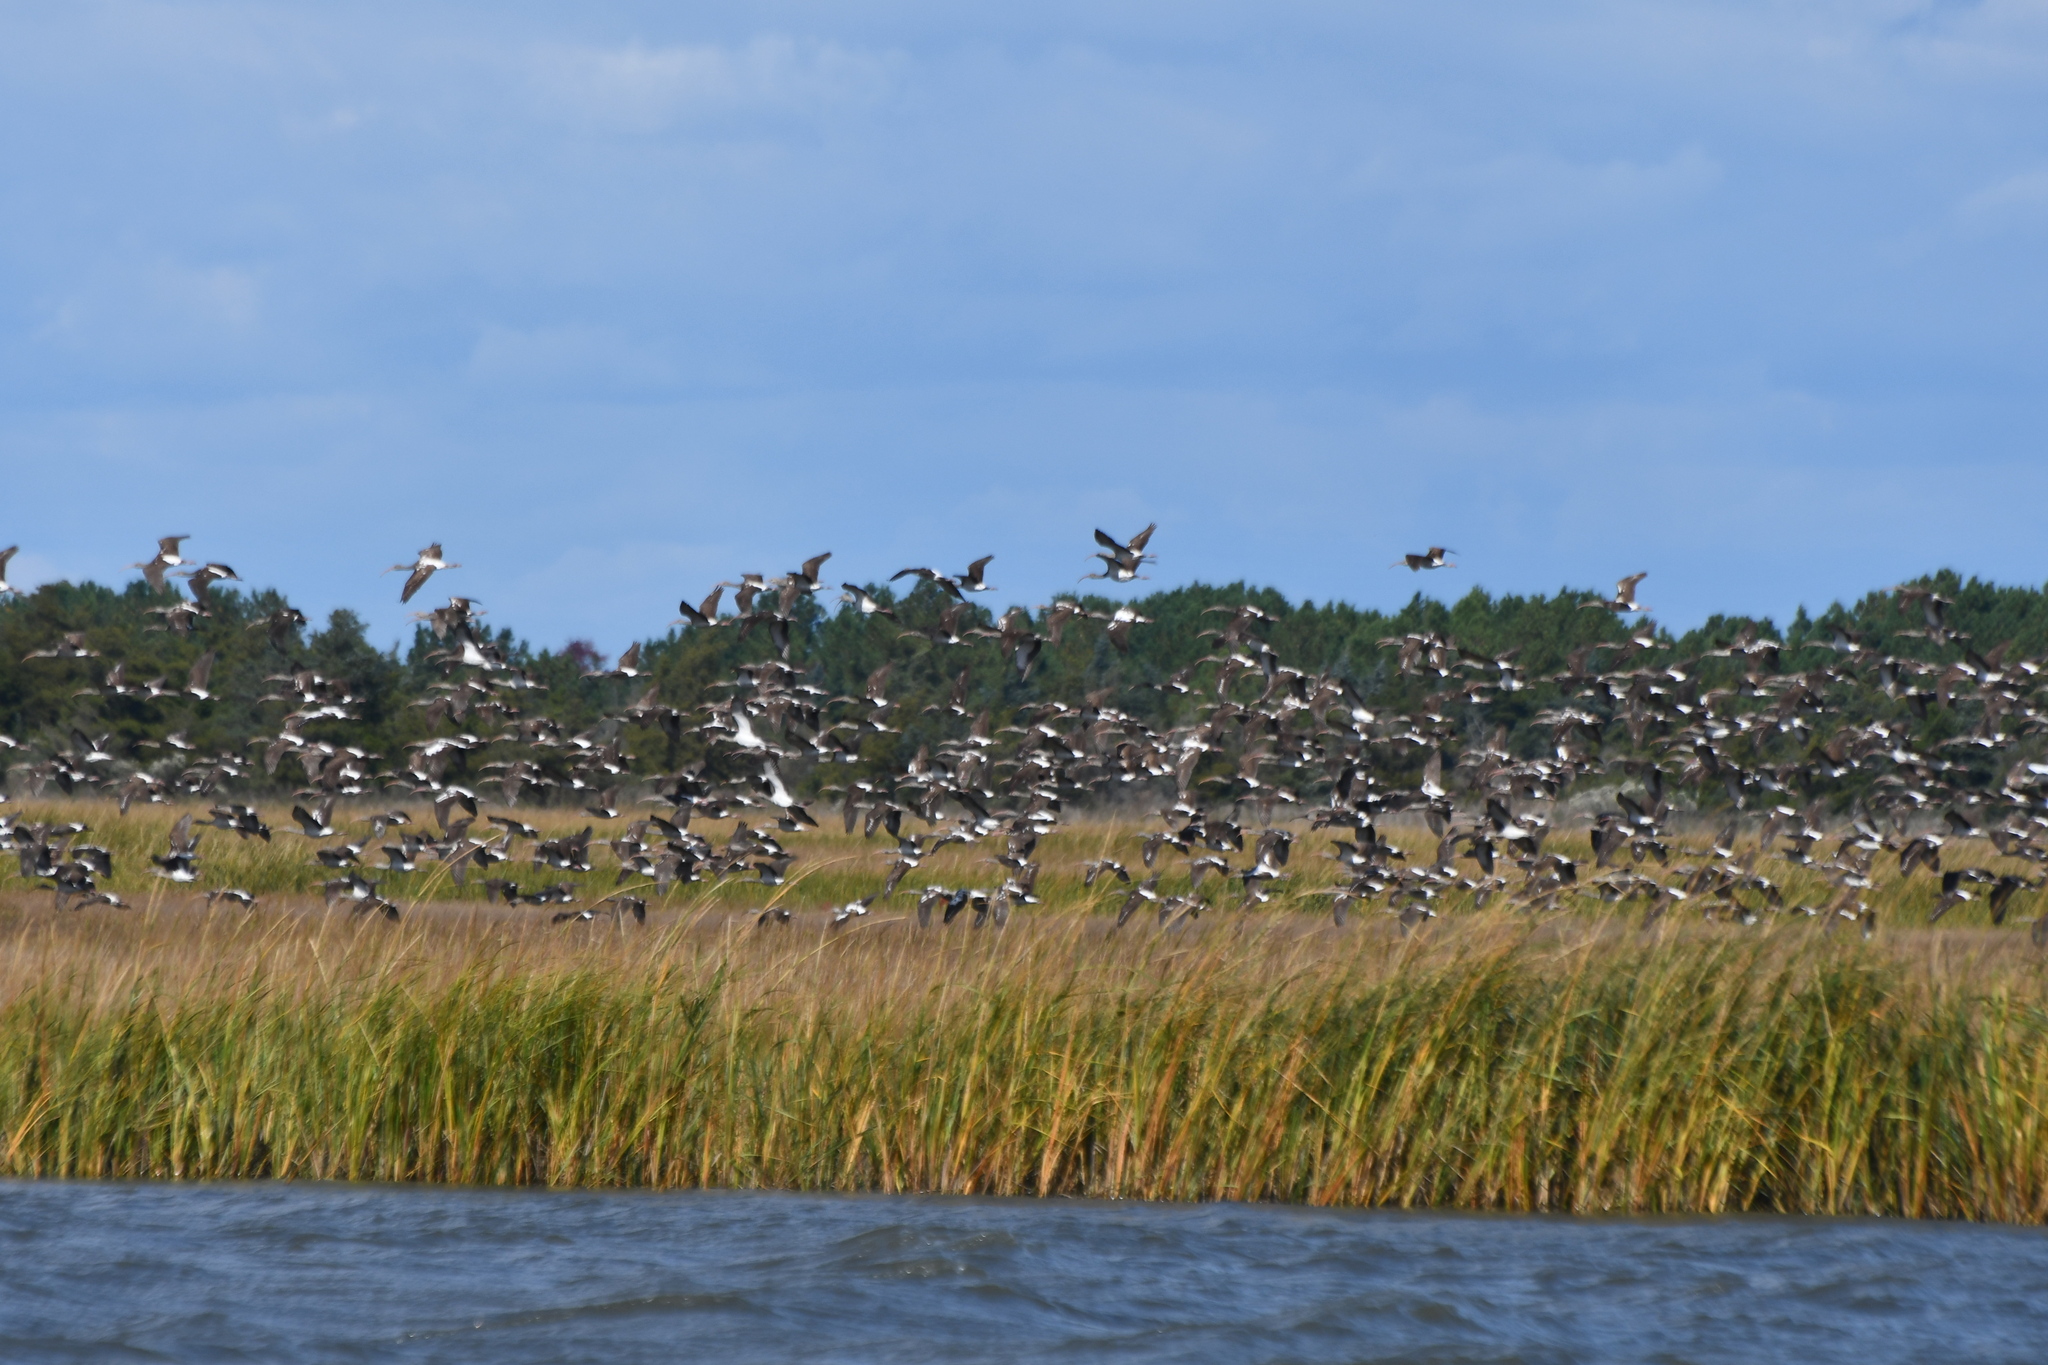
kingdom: Animalia
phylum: Chordata
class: Aves
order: Pelecaniformes
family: Threskiornithidae
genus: Eudocimus
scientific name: Eudocimus albus
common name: White ibis
